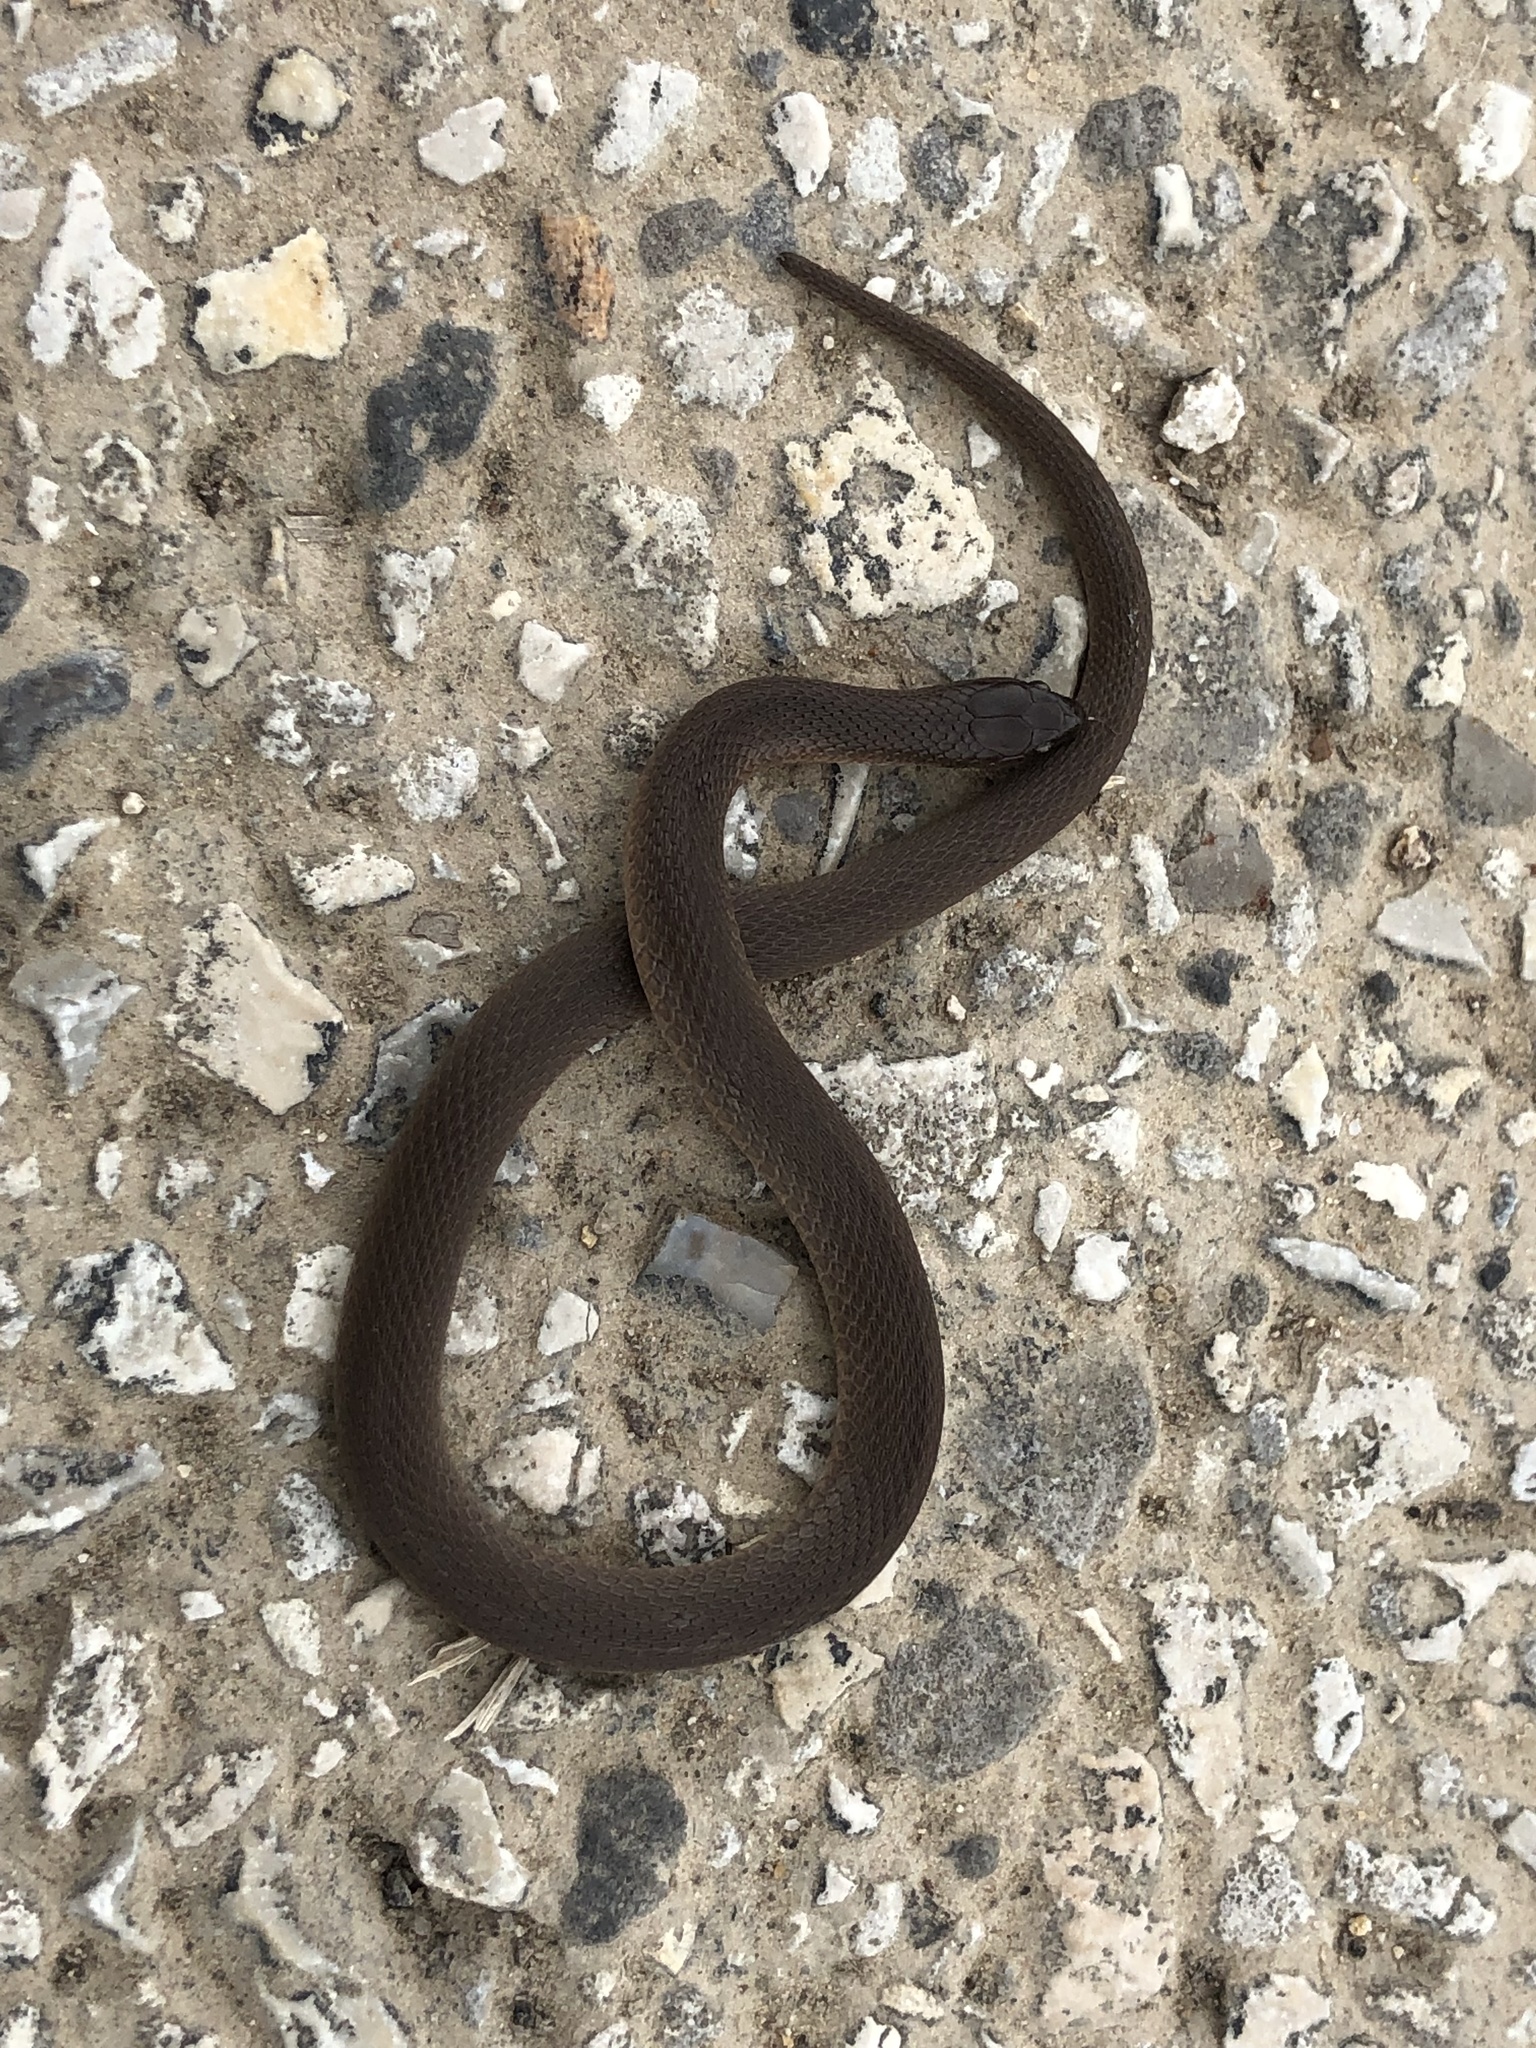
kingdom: Animalia
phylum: Chordata
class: Squamata
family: Colubridae
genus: Haldea
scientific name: Haldea striatula
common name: Rough earth snake
